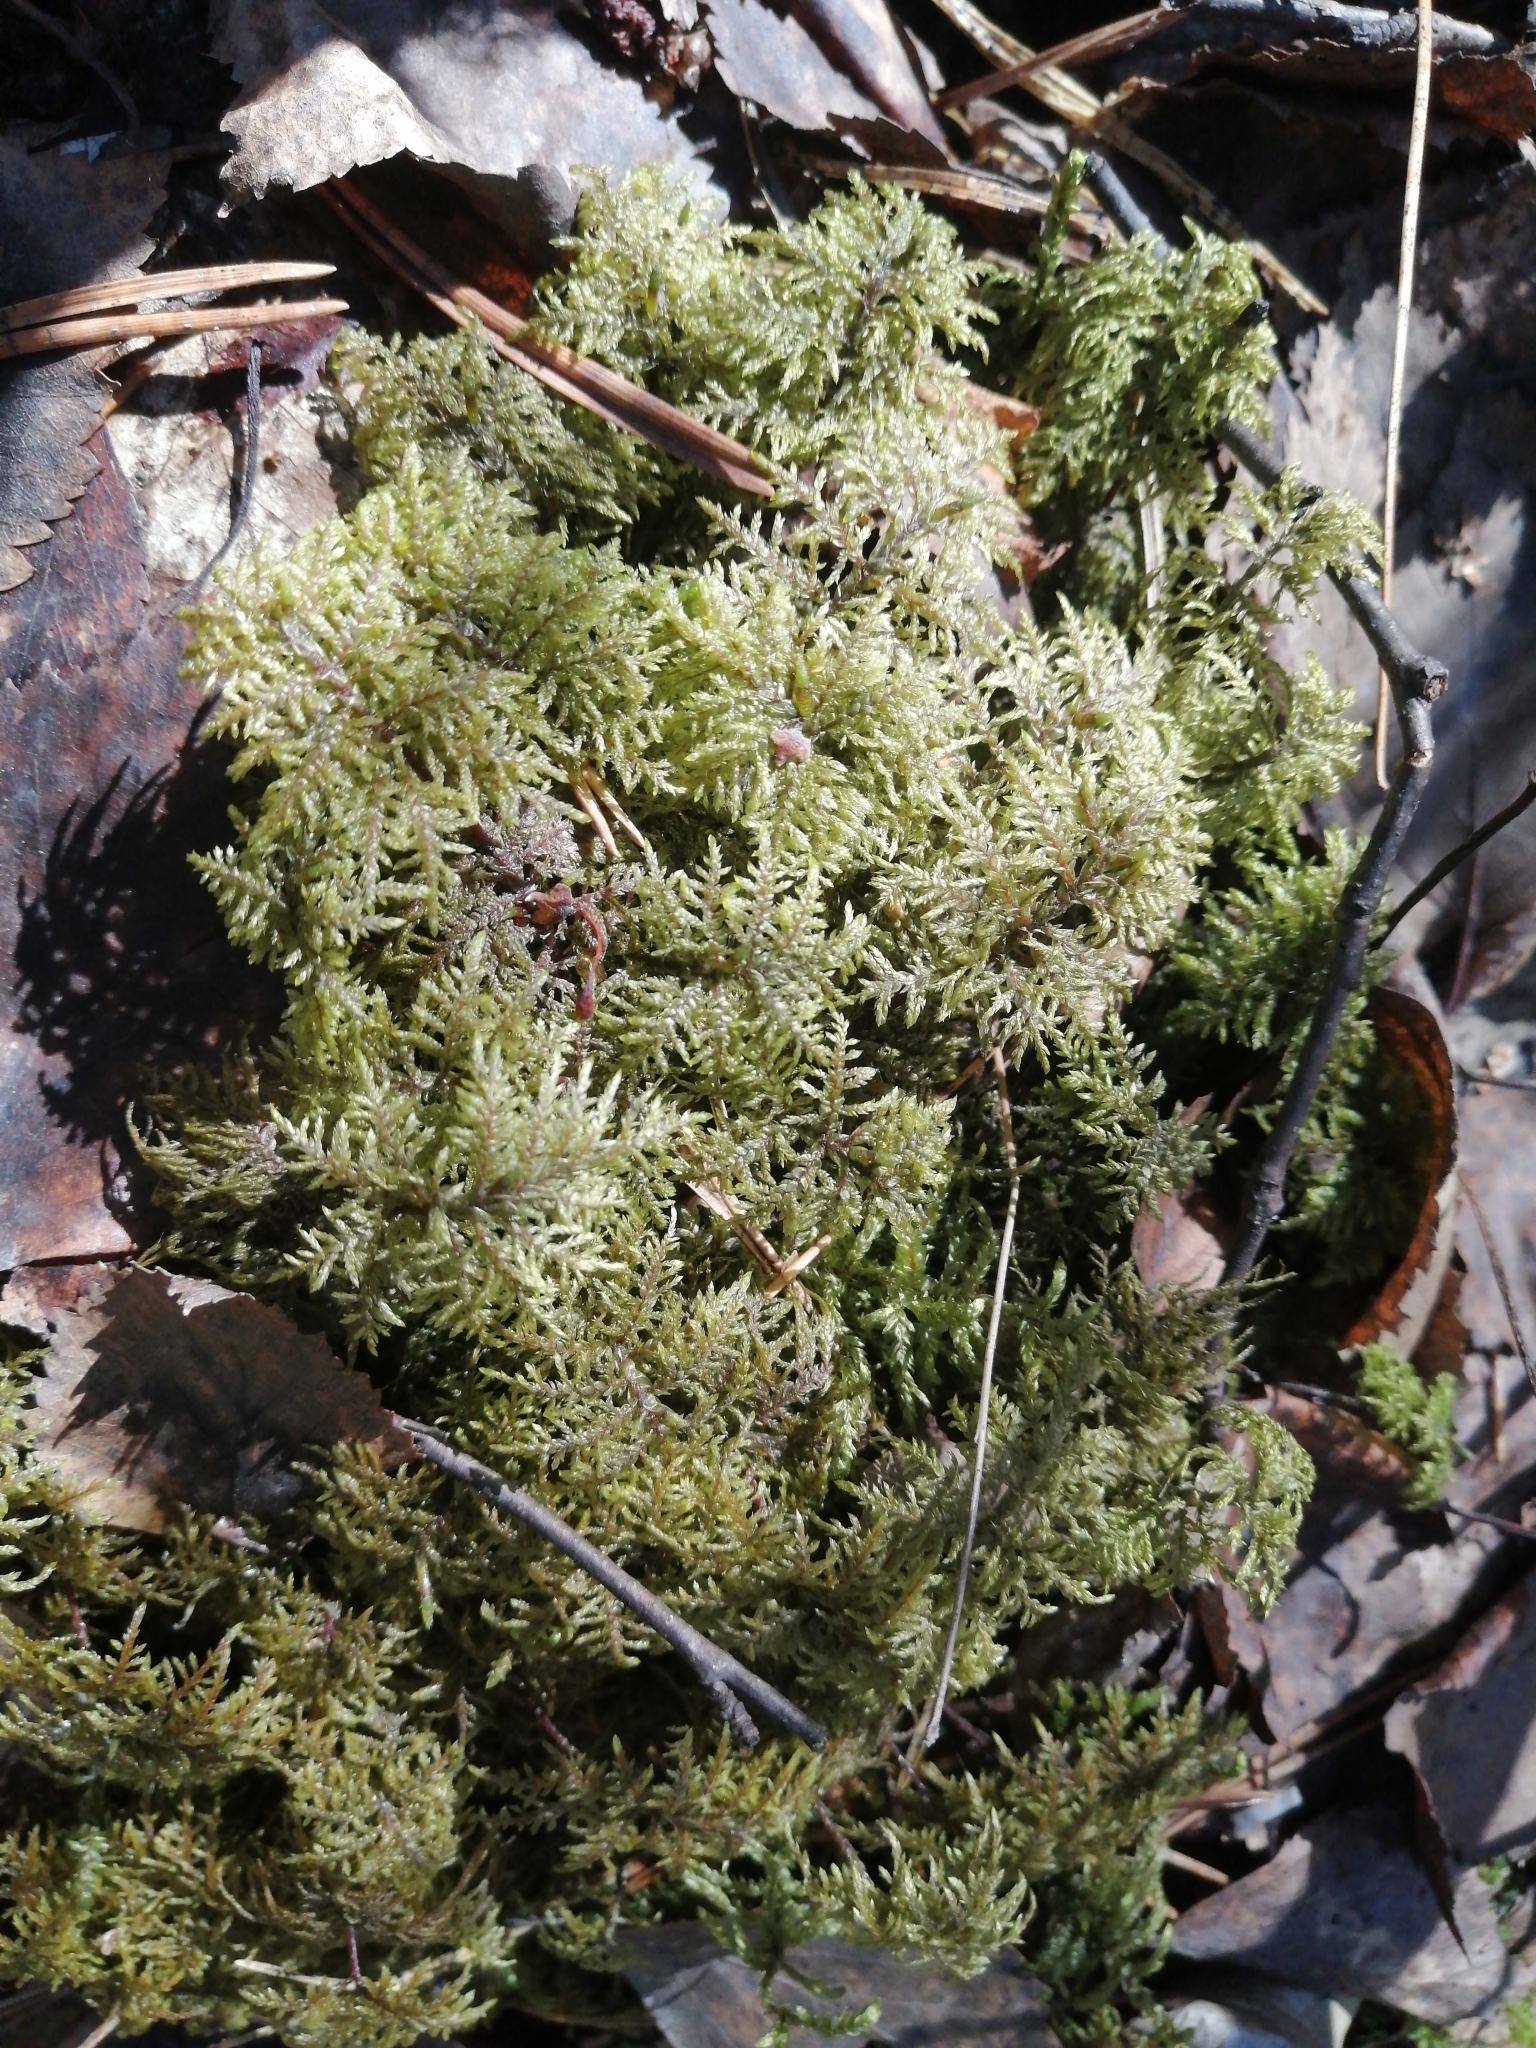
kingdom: Plantae
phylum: Bryophyta
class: Bryopsida
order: Hypnales
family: Hylocomiaceae
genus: Hylocomium
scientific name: Hylocomium splendens
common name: Stairstep moss
